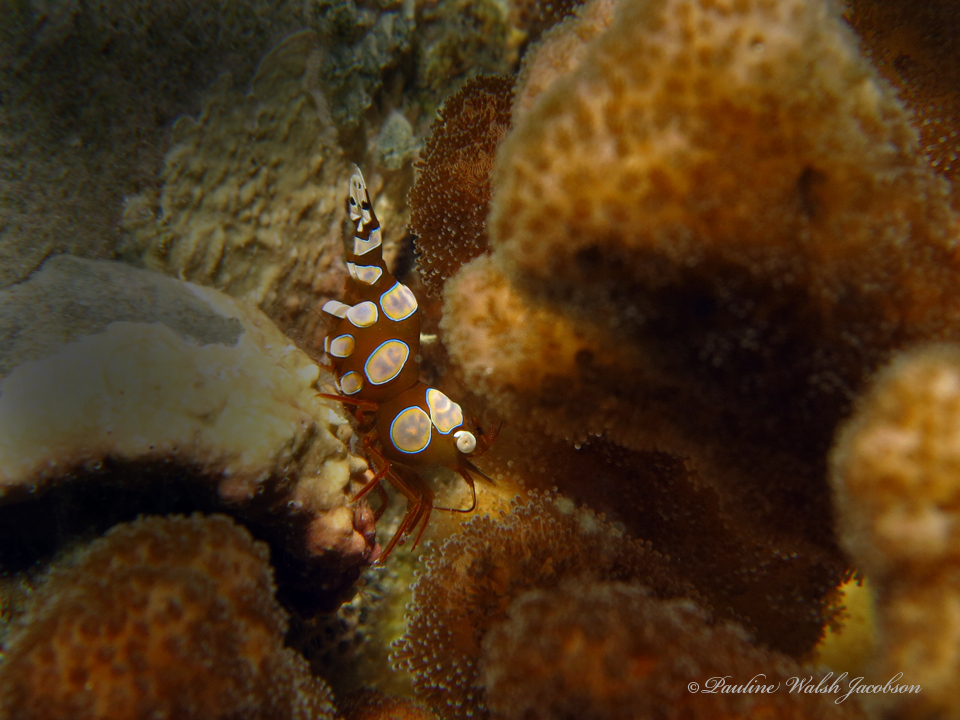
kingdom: Animalia
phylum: Arthropoda
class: Malacostraca
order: Decapoda
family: Thoridae
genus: Thor
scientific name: Thor amboinensis
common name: Squat anemone shrimp
